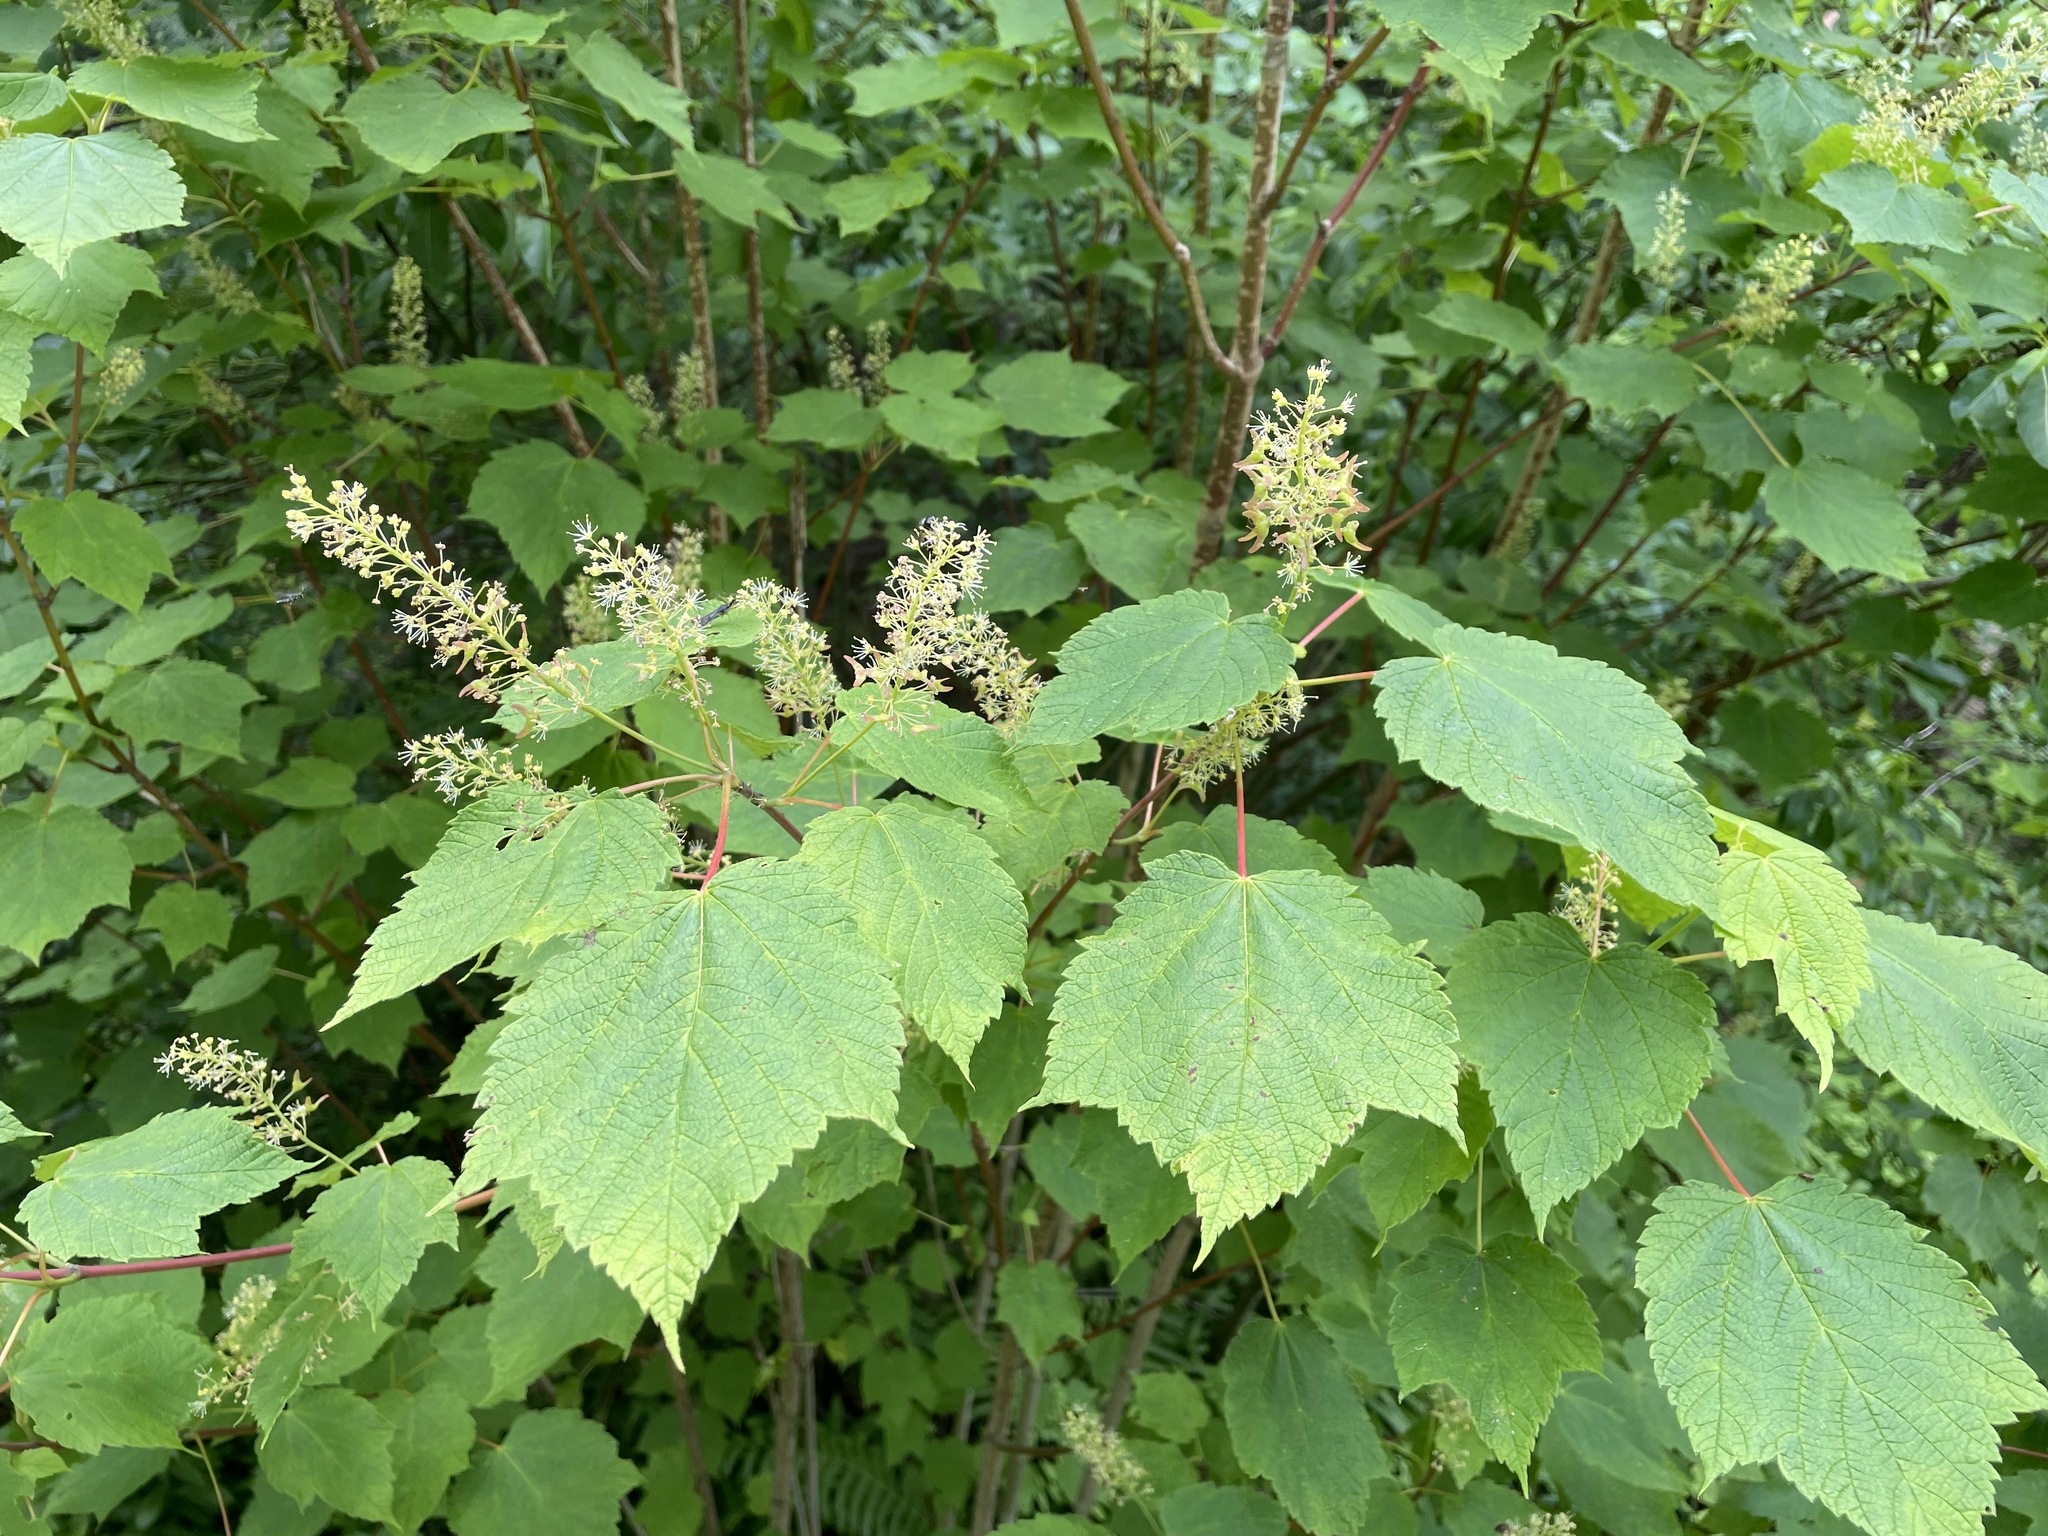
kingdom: Plantae
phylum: Tracheophyta
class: Magnoliopsida
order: Sapindales
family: Sapindaceae
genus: Acer
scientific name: Acer spicatum
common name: Mountain maple
